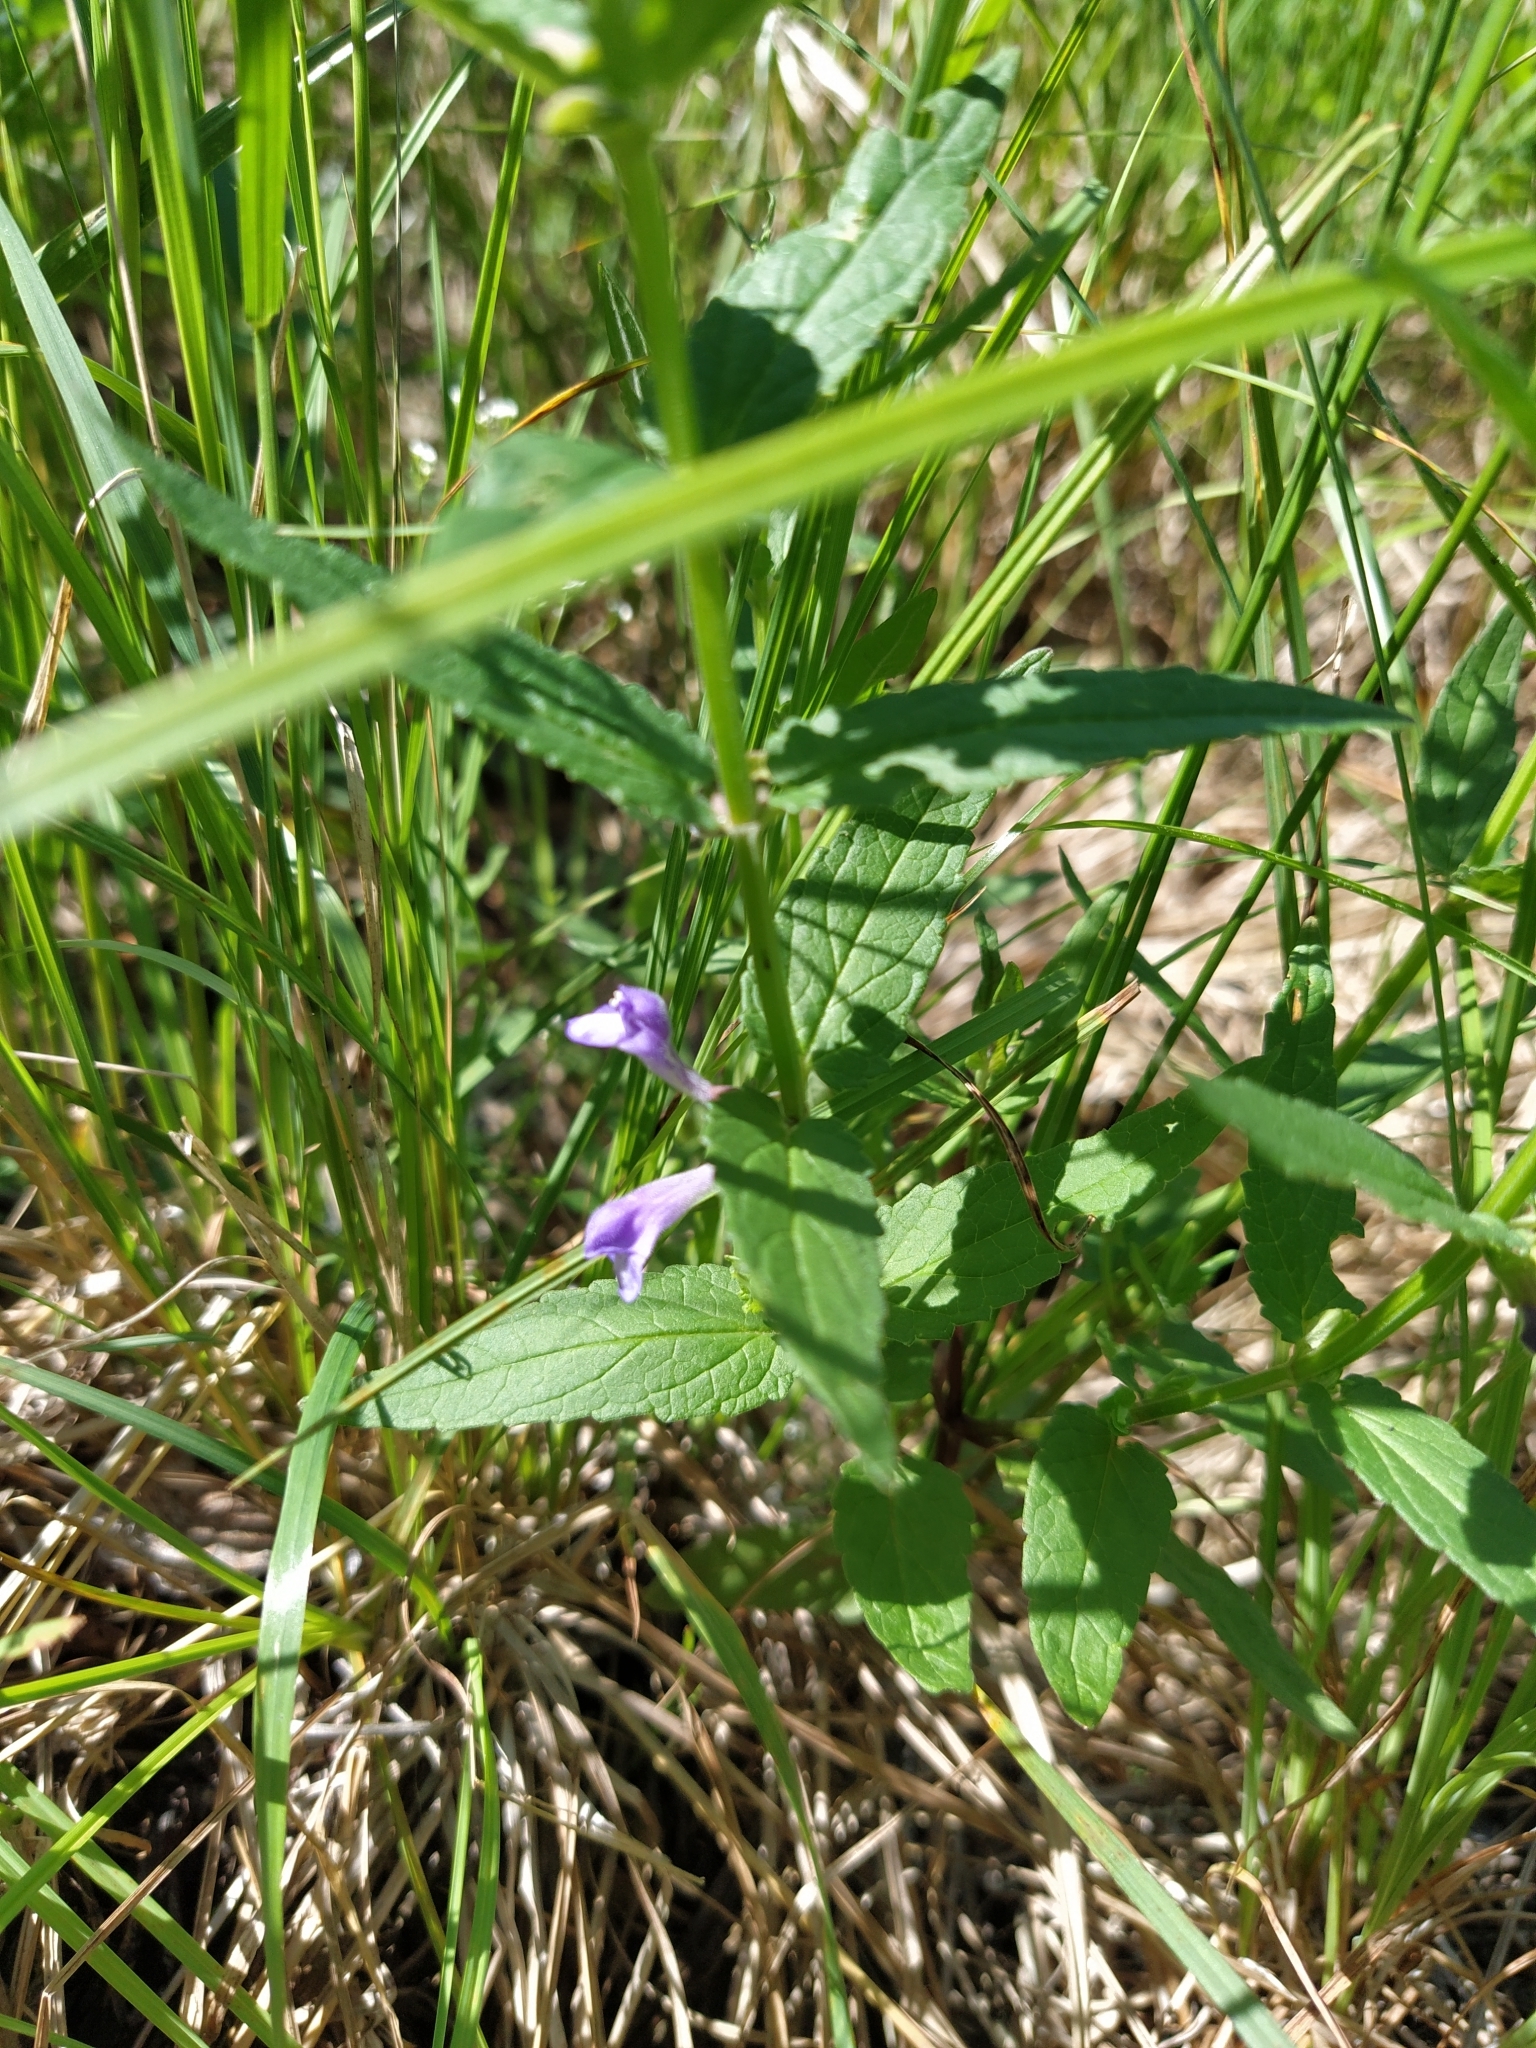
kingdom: Plantae
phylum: Tracheophyta
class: Magnoliopsida
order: Lamiales
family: Lamiaceae
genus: Scutellaria
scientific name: Scutellaria galericulata
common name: Skullcap
